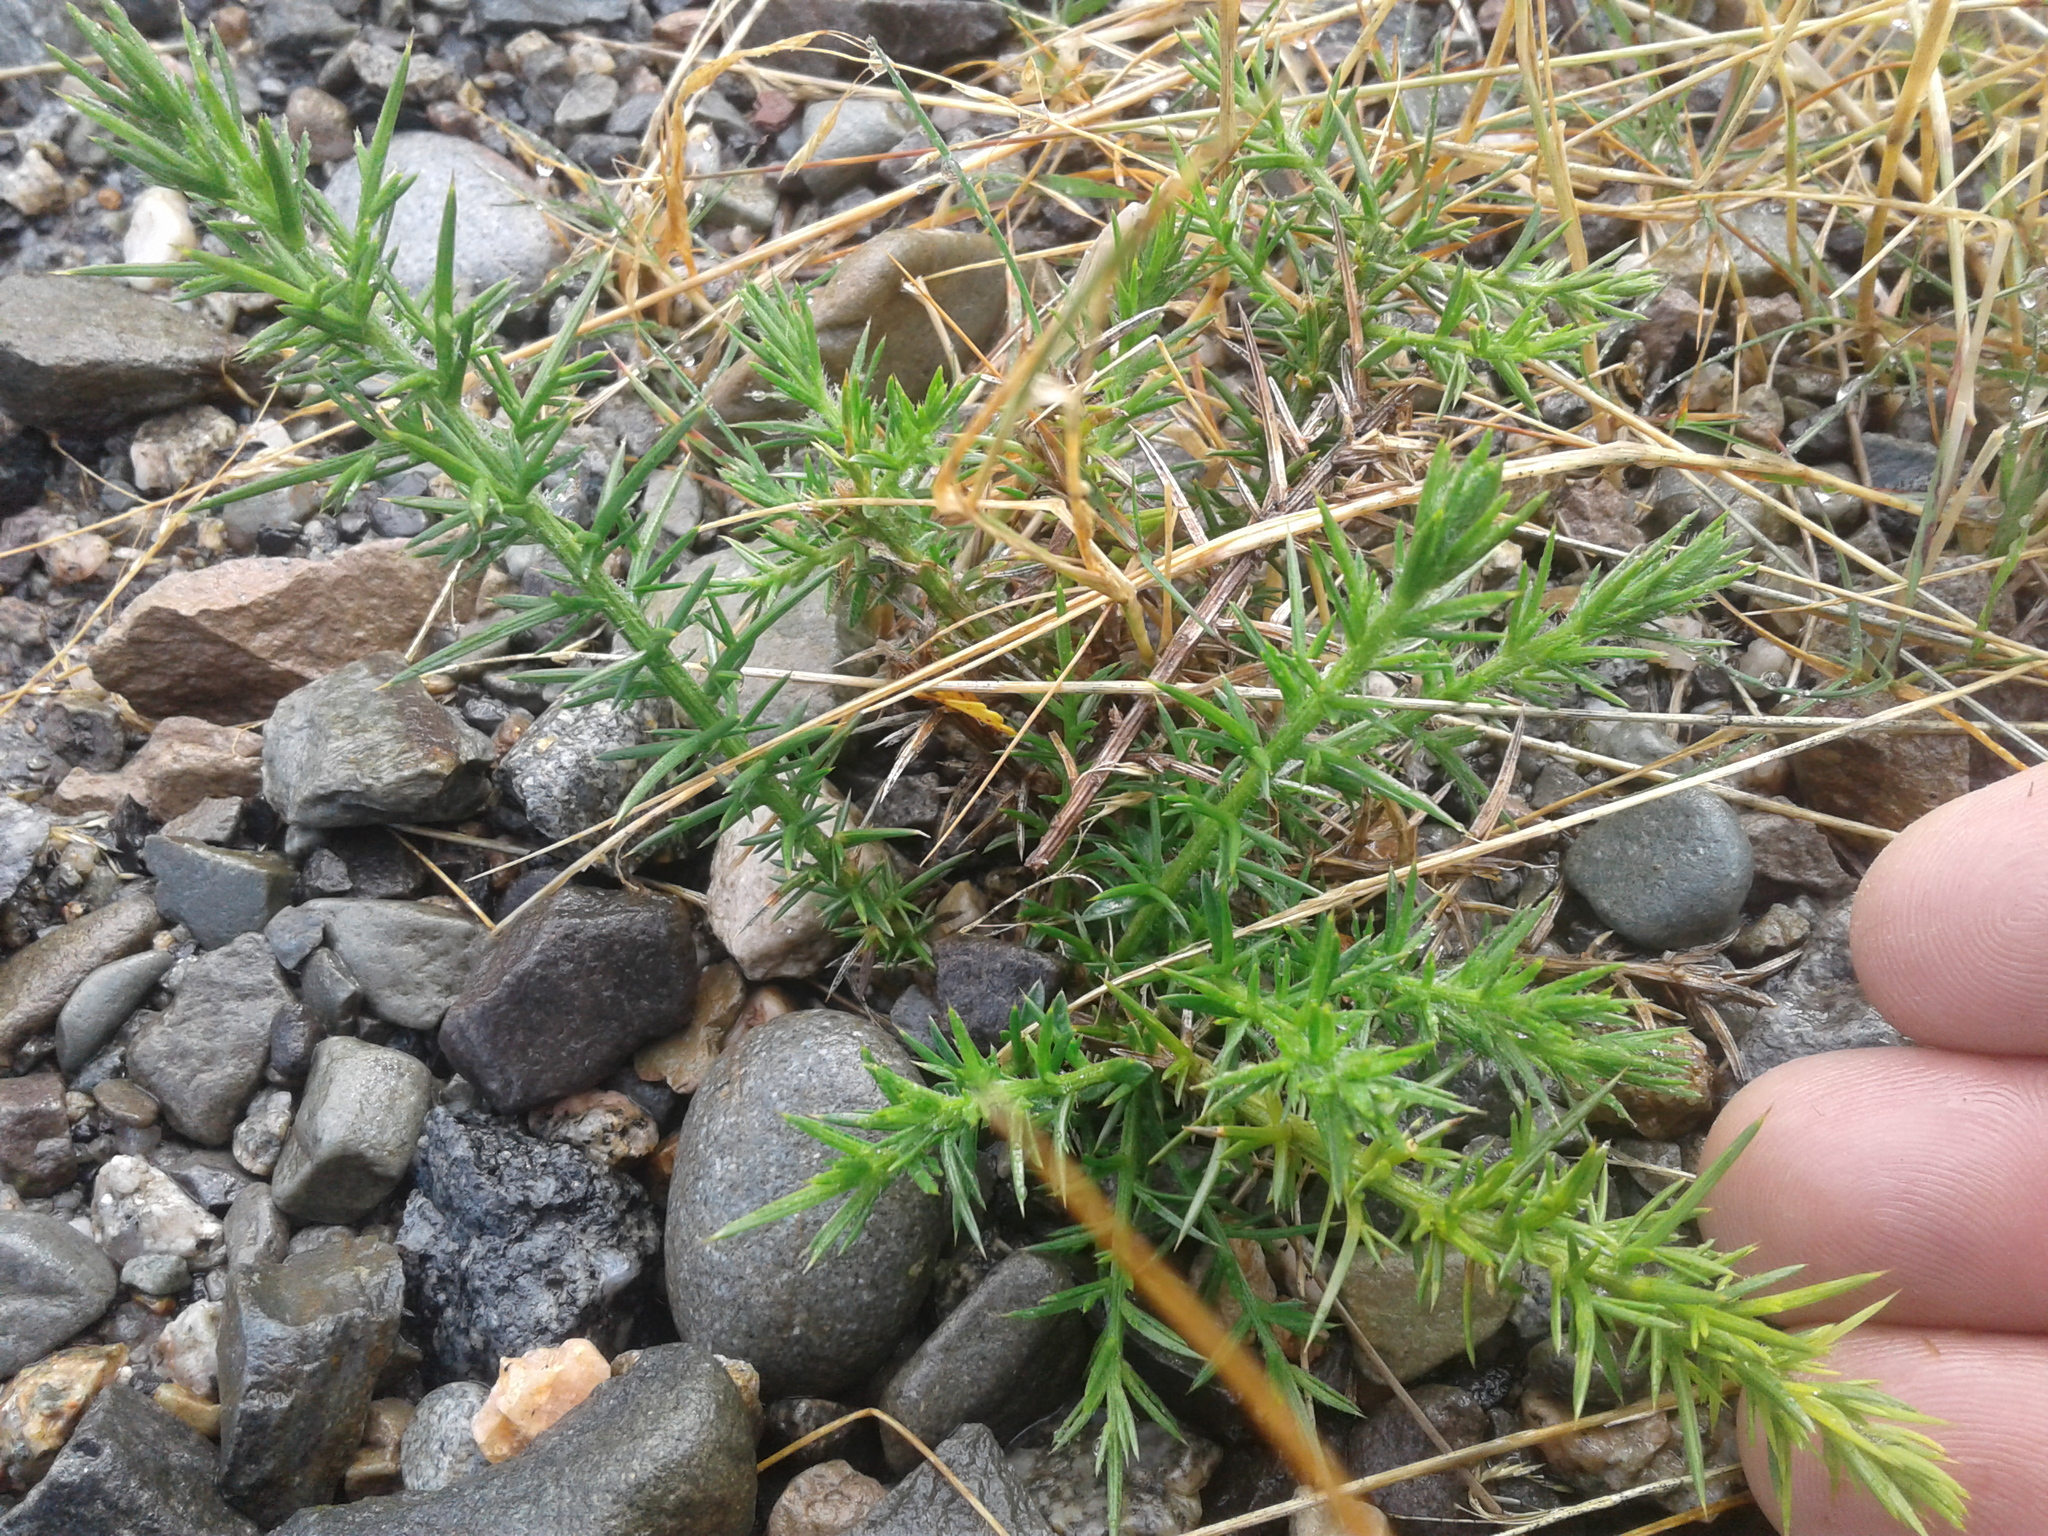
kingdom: Plantae
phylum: Tracheophyta
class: Magnoliopsida
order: Fabales
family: Fabaceae
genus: Ulex
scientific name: Ulex europaeus
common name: Common gorse
